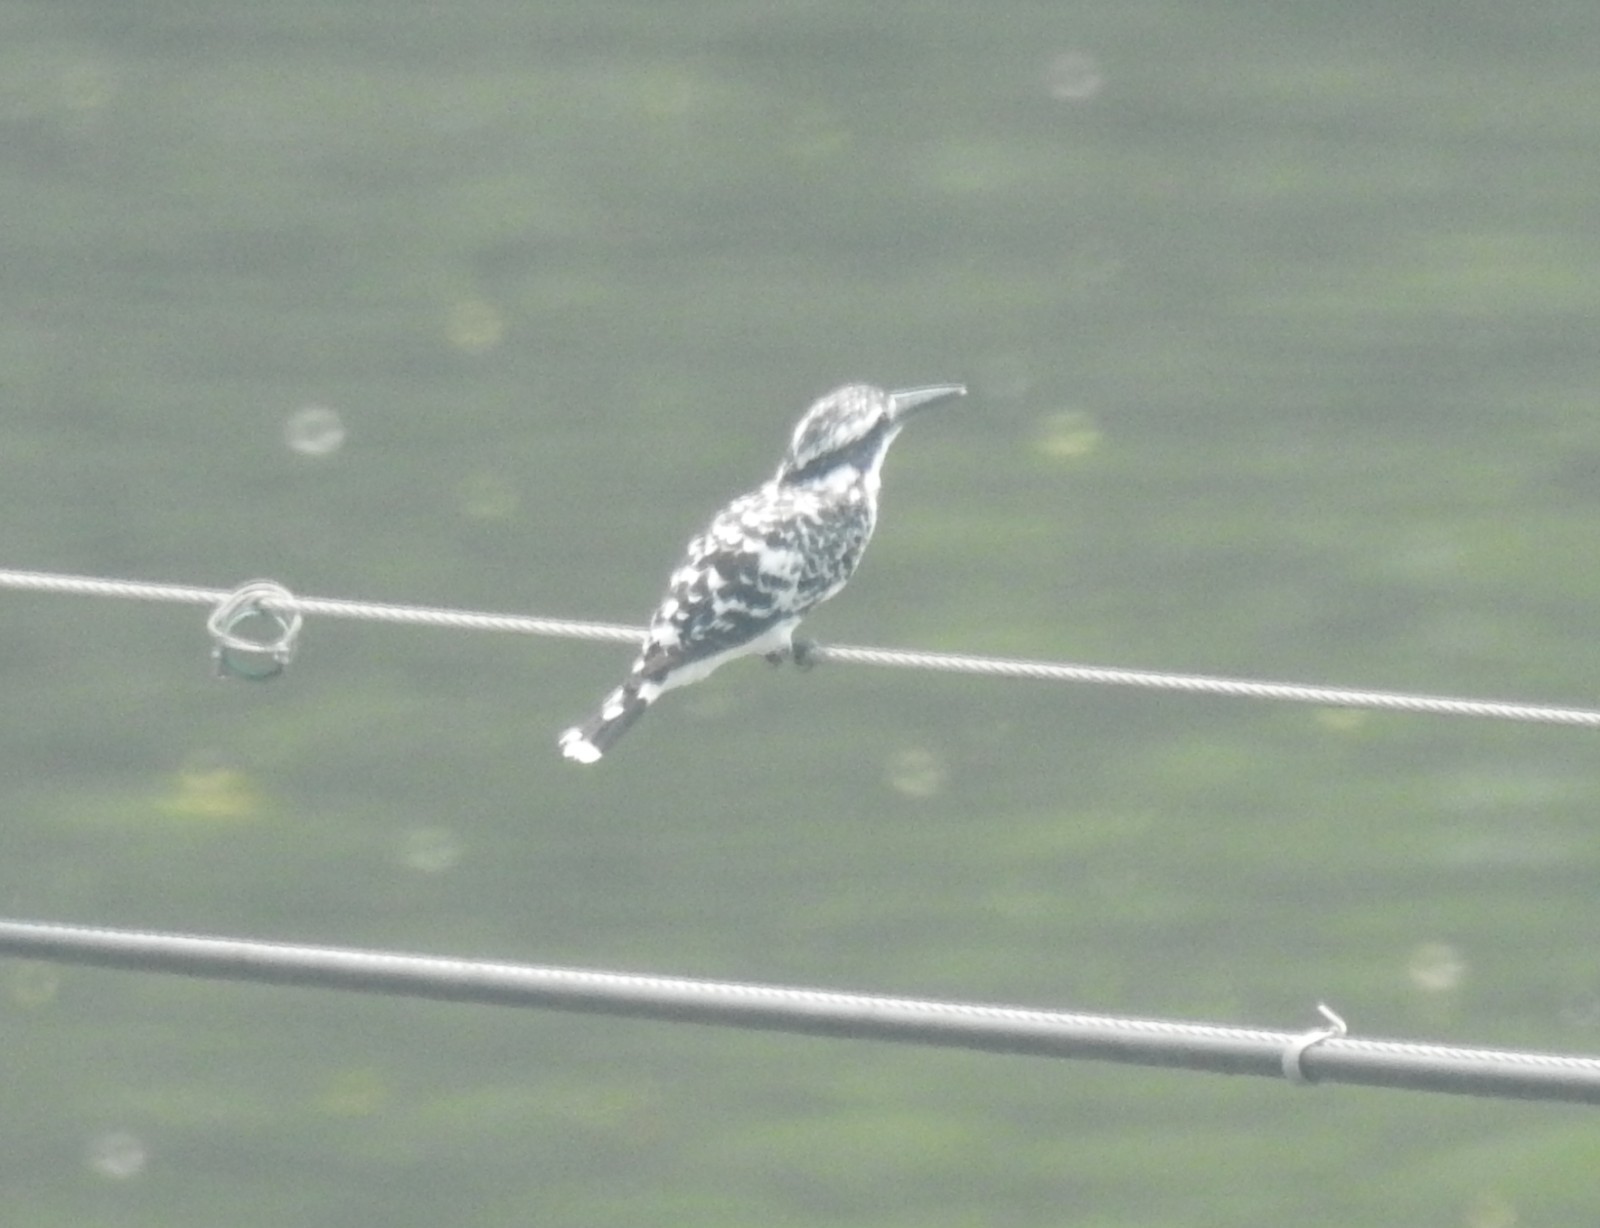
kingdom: Animalia
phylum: Chordata
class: Aves
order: Coraciiformes
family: Alcedinidae
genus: Ceryle
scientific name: Ceryle rudis
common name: Pied kingfisher
